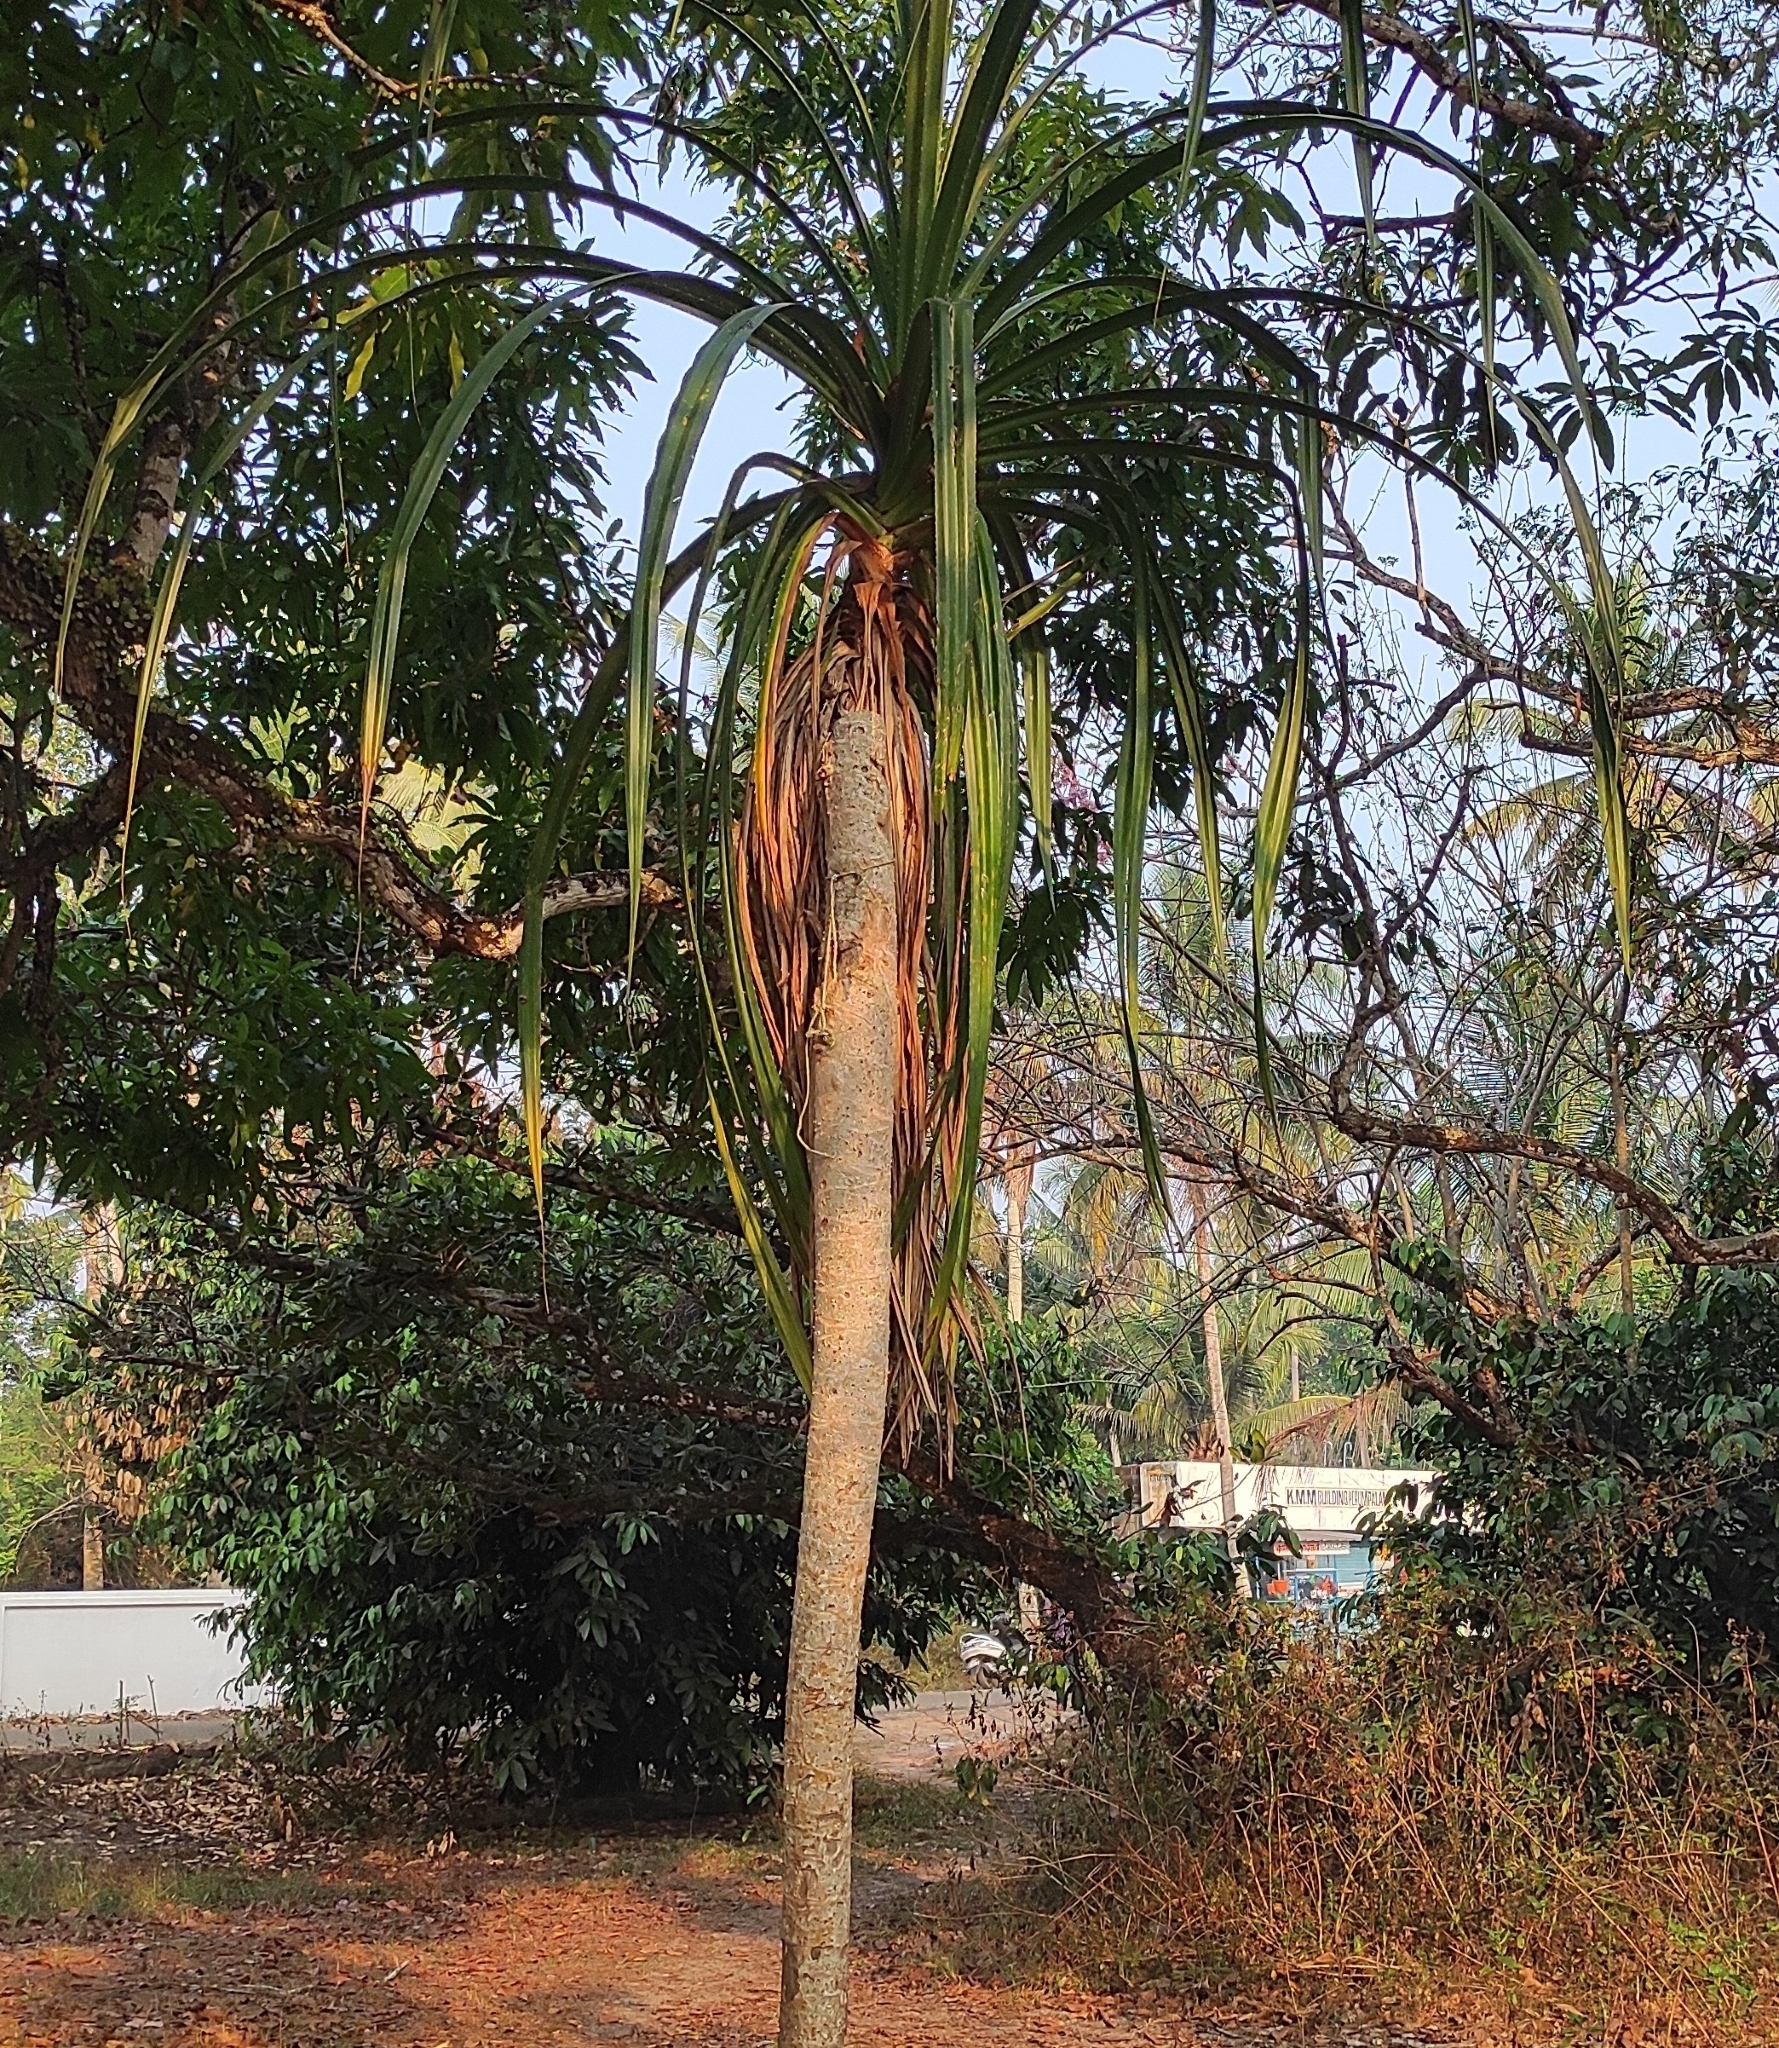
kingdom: Plantae
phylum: Tracheophyta
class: Liliopsida
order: Pandanales
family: Pandanaceae
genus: Pandanus
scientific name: Pandanus odorifer
